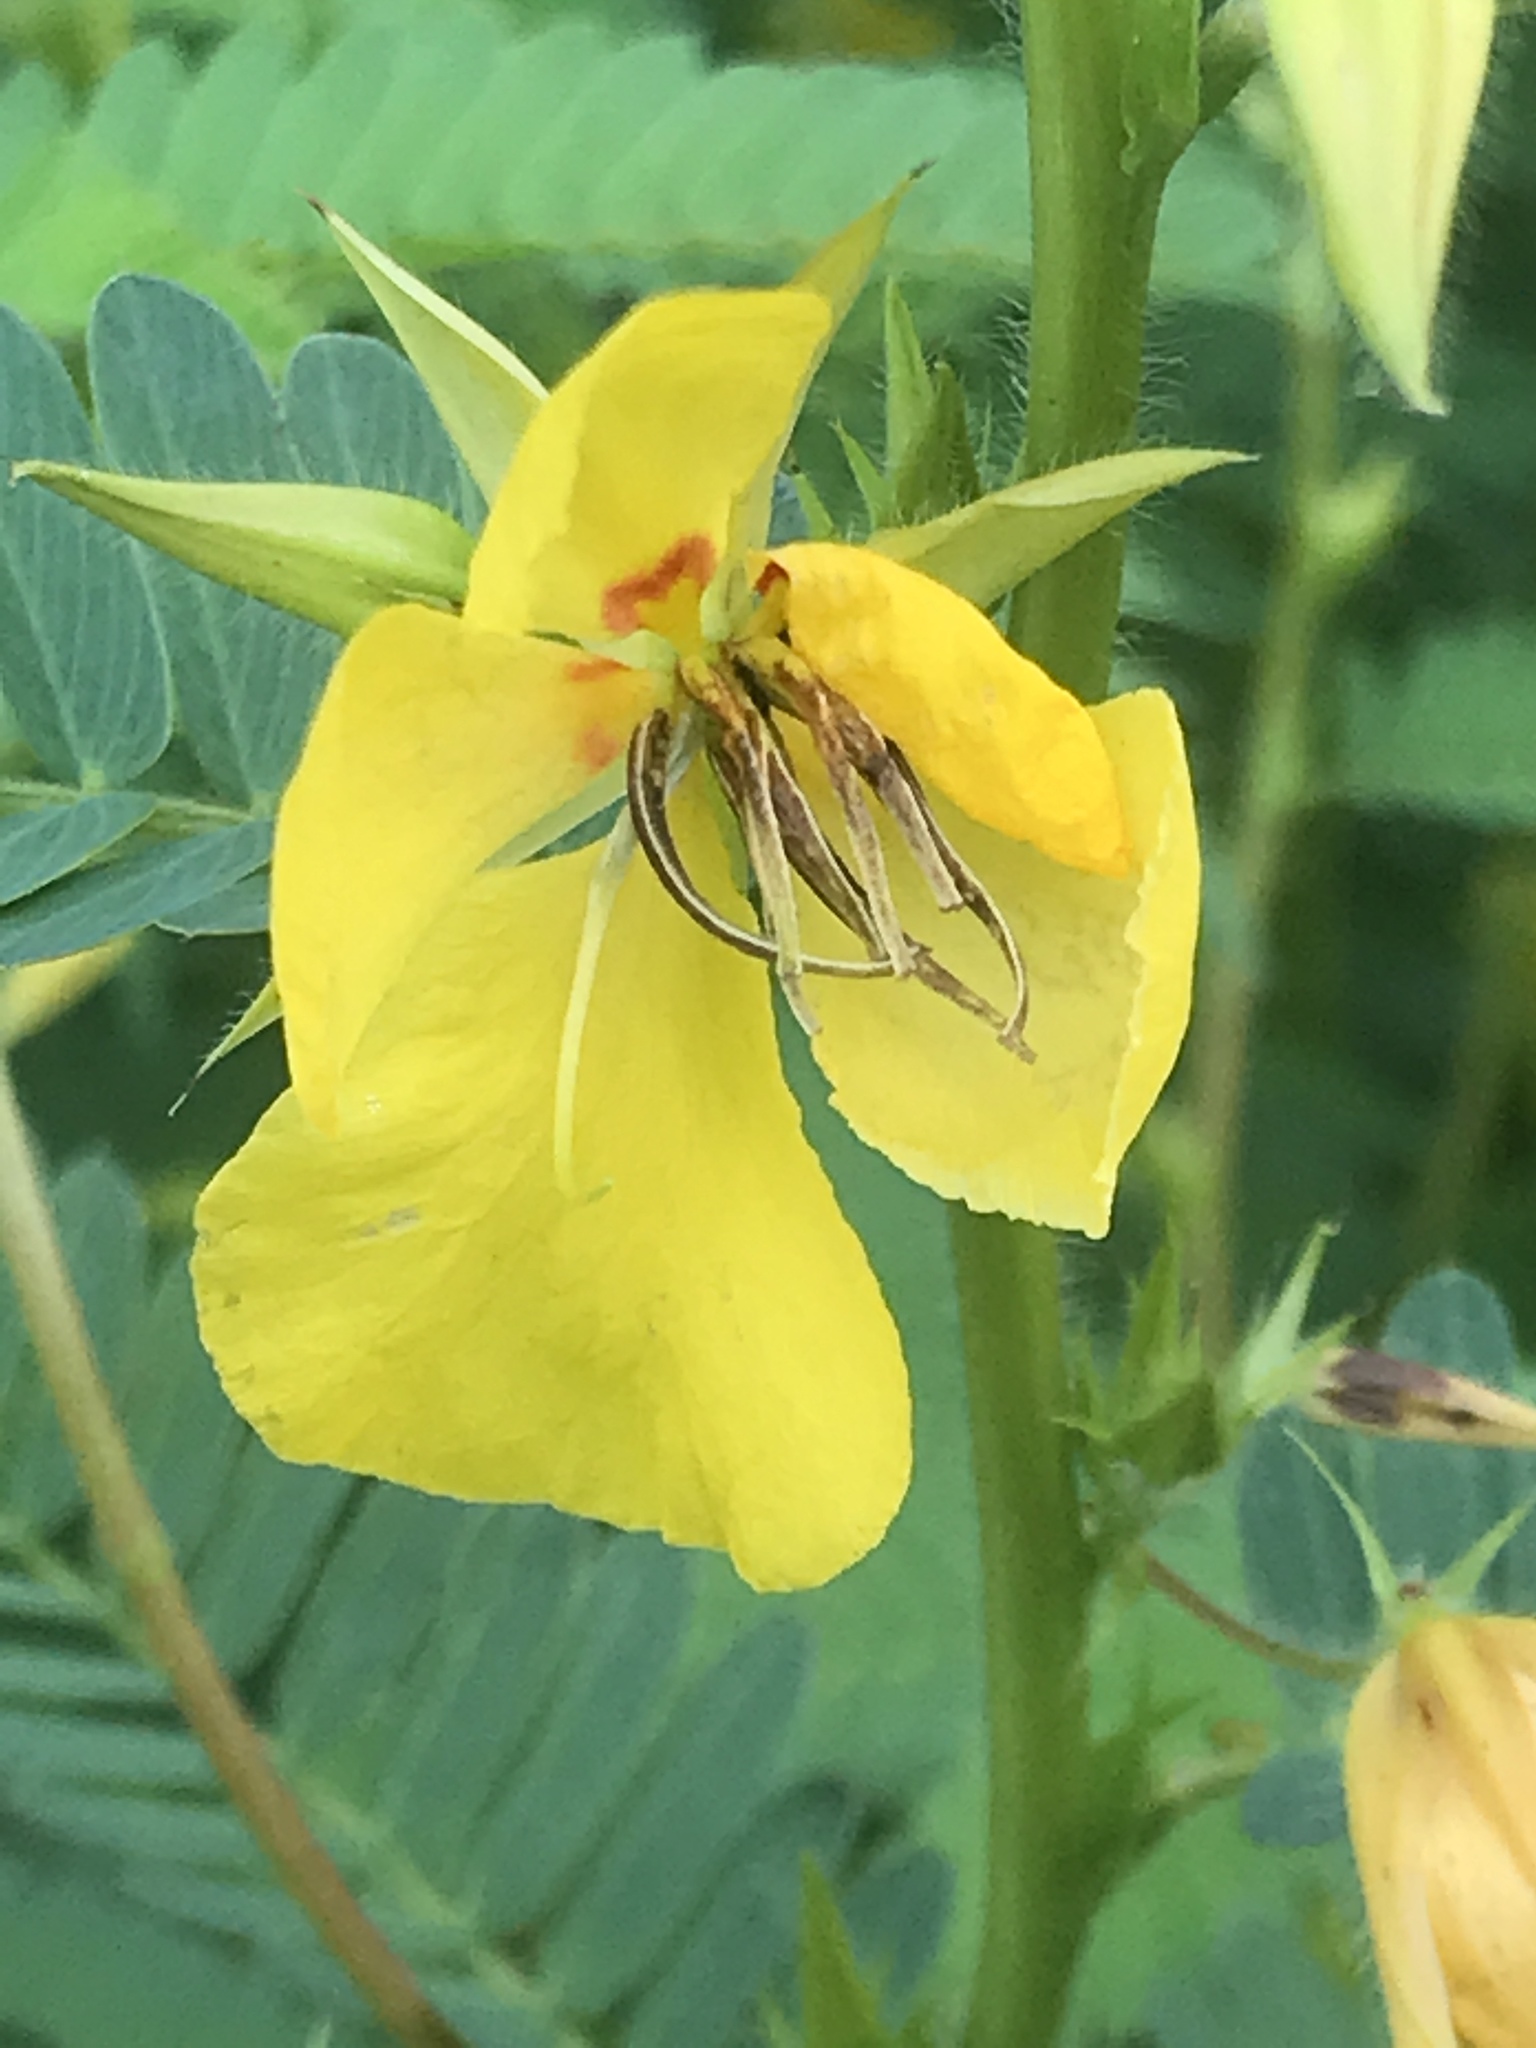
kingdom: Plantae
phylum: Tracheophyta
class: Magnoliopsida
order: Fabales
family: Fabaceae
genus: Chamaecrista
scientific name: Chamaecrista fasciculata
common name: Golden cassia
